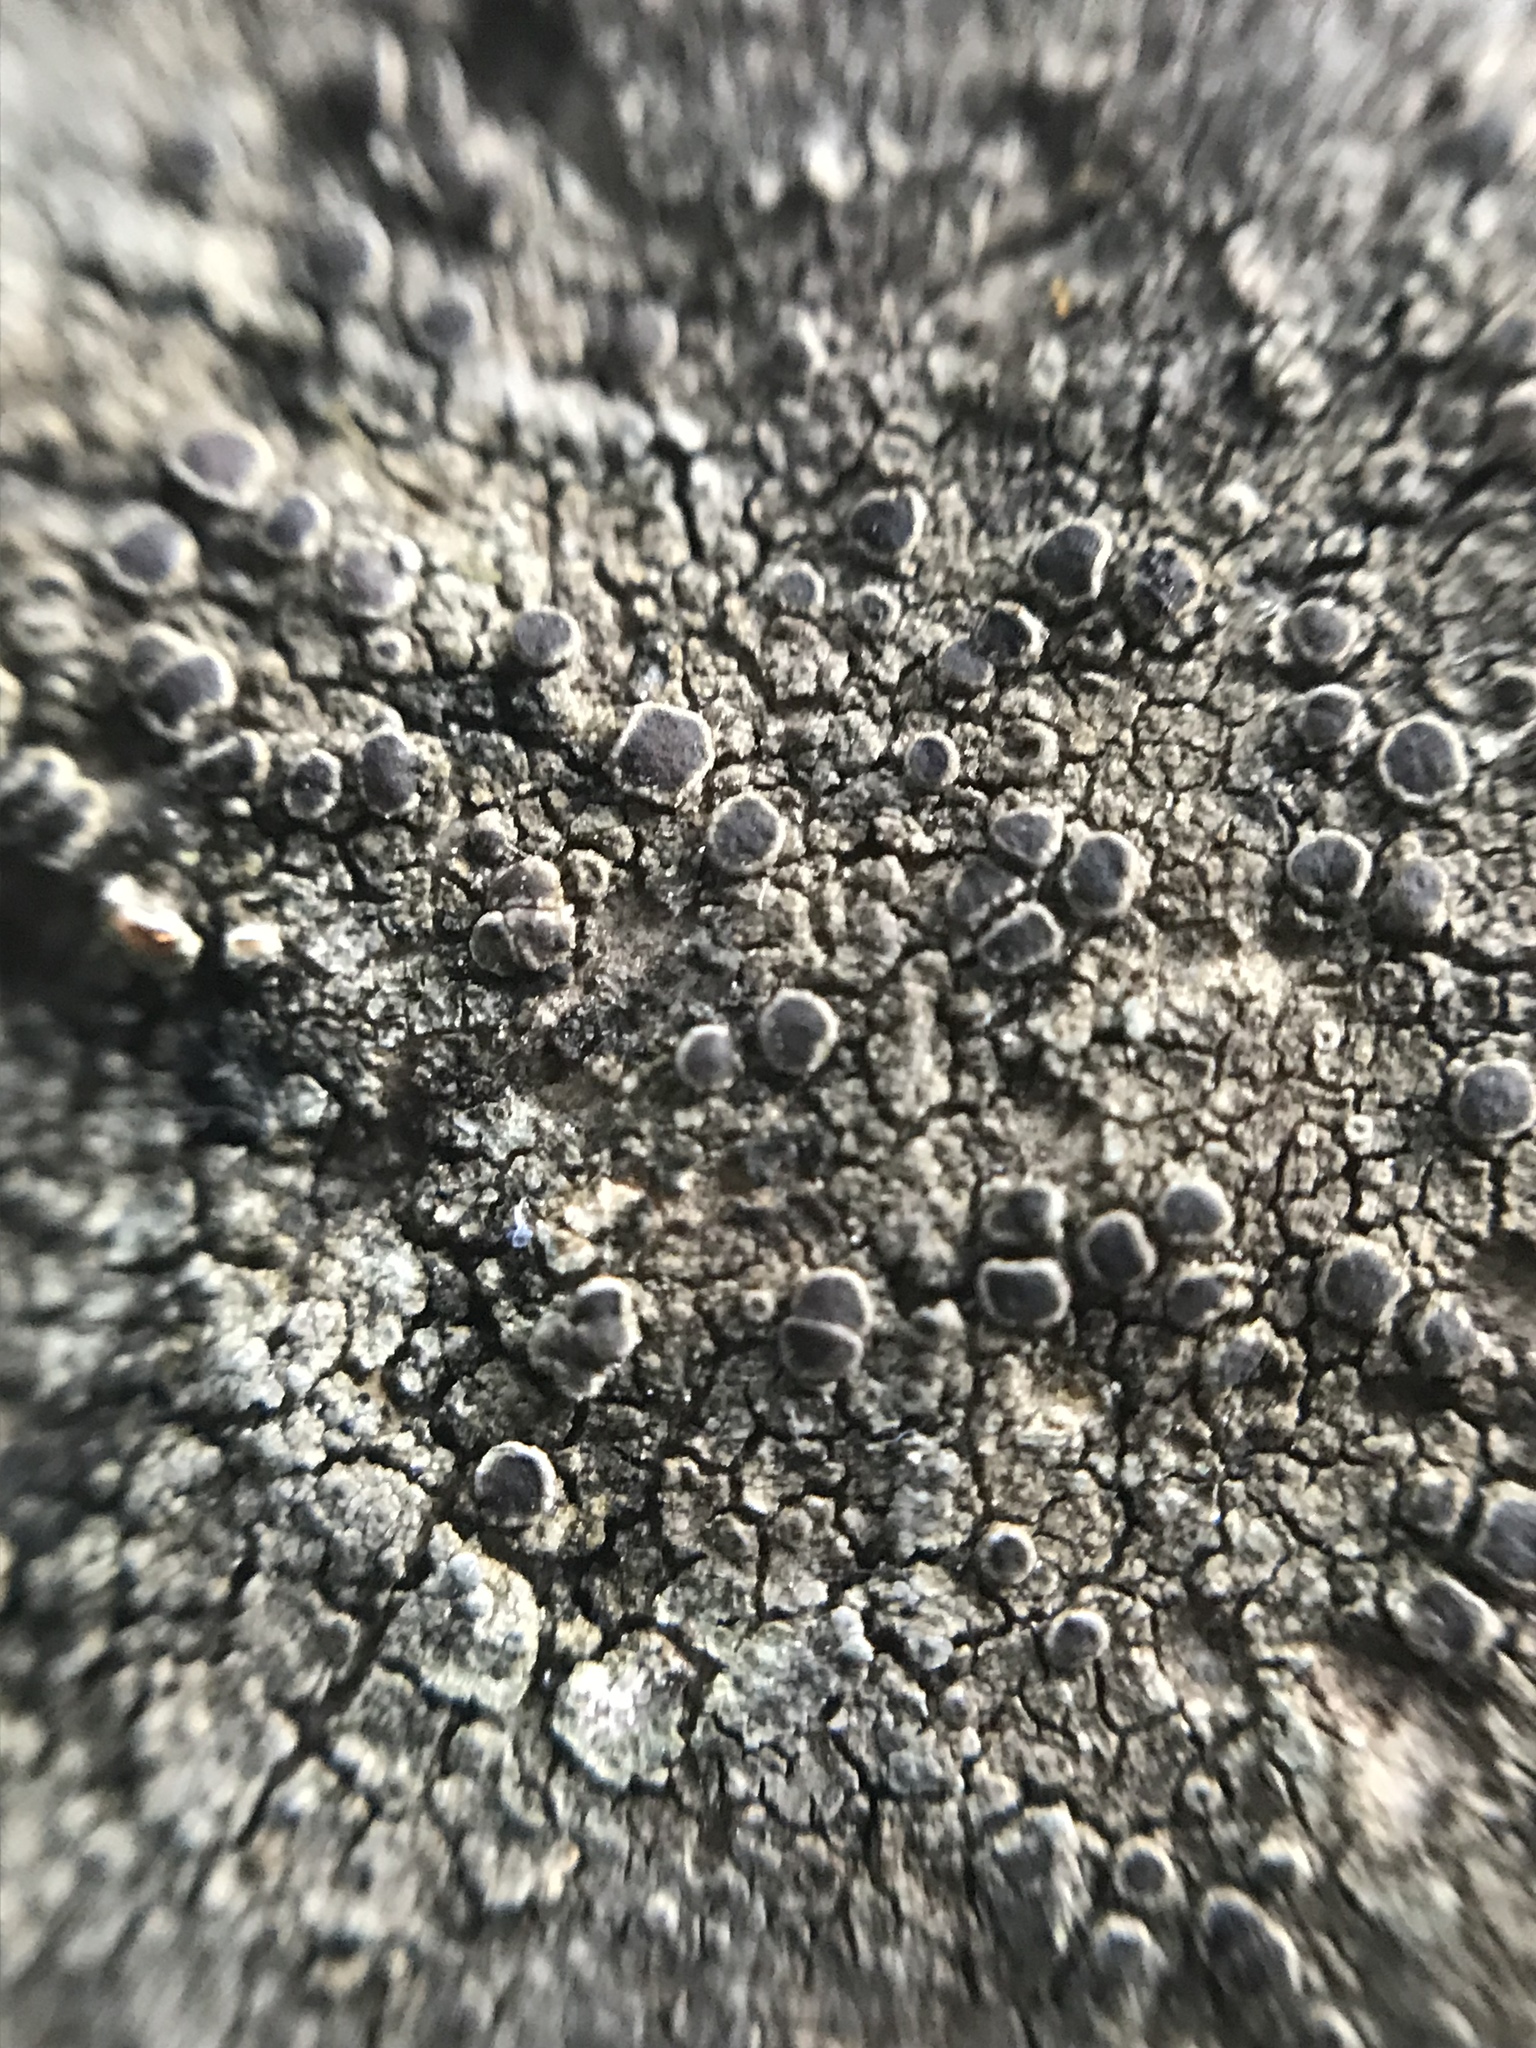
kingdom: Fungi
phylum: Ascomycota
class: Lecanoromycetes
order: Lecanorales
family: Lecanoraceae
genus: Lecanora
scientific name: Lecanora subimmergens
